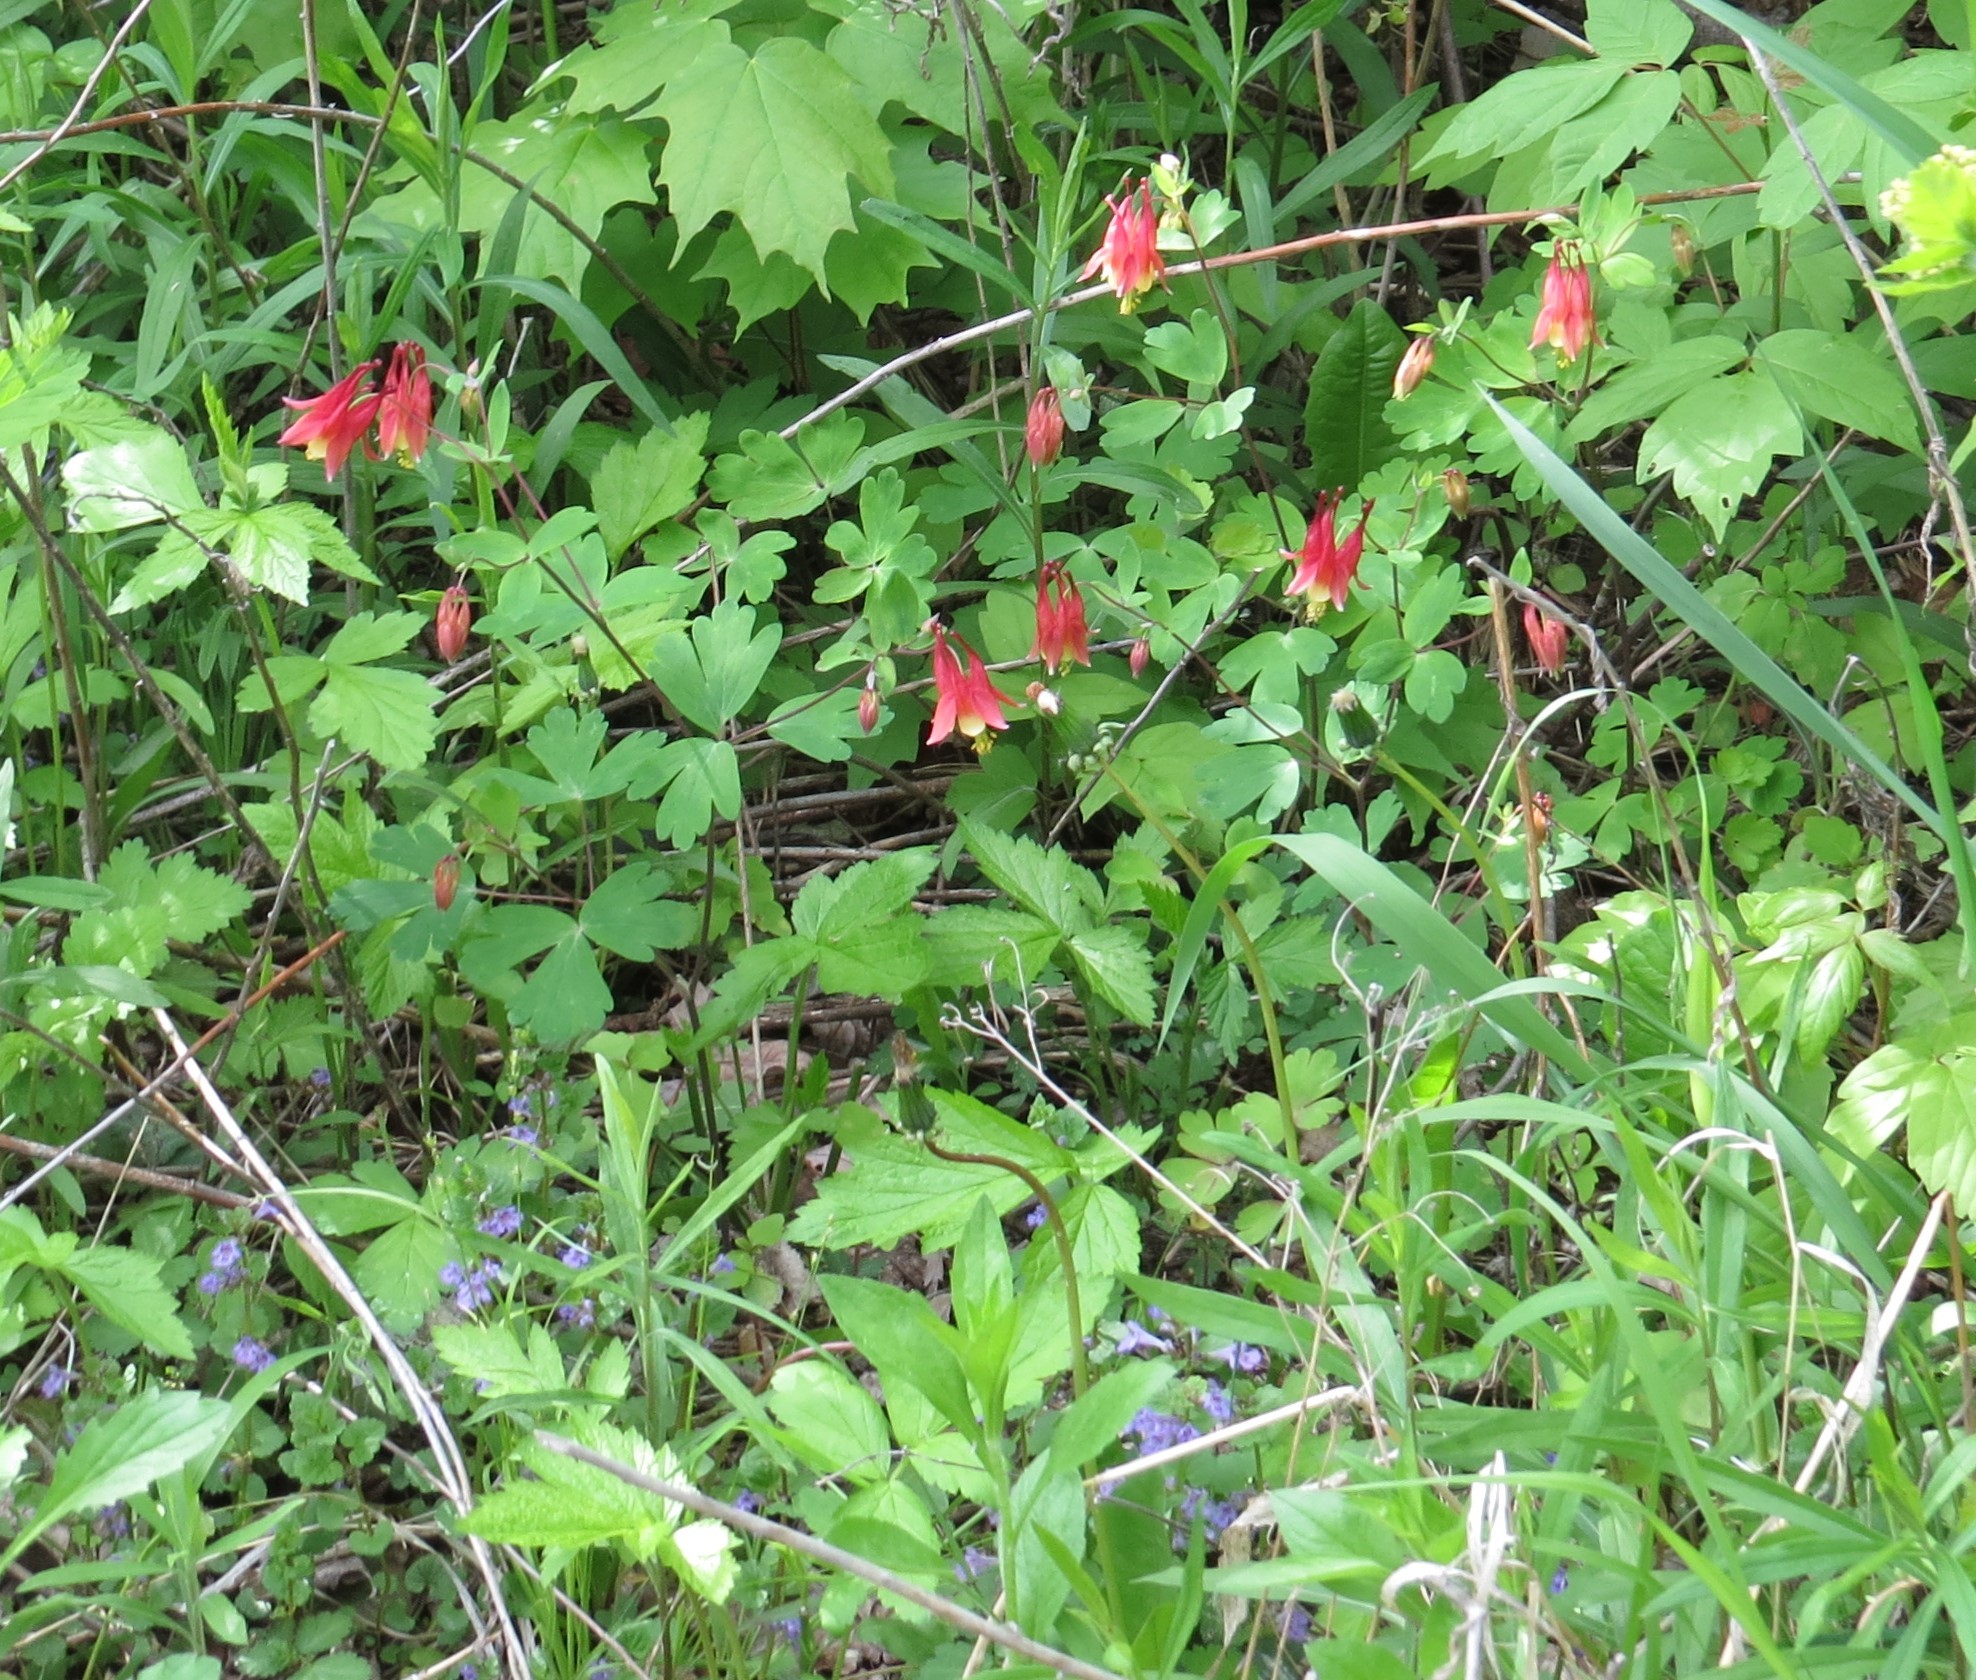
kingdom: Plantae
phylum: Tracheophyta
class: Magnoliopsida
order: Ranunculales
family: Ranunculaceae
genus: Aquilegia
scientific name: Aquilegia canadensis
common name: American columbine
